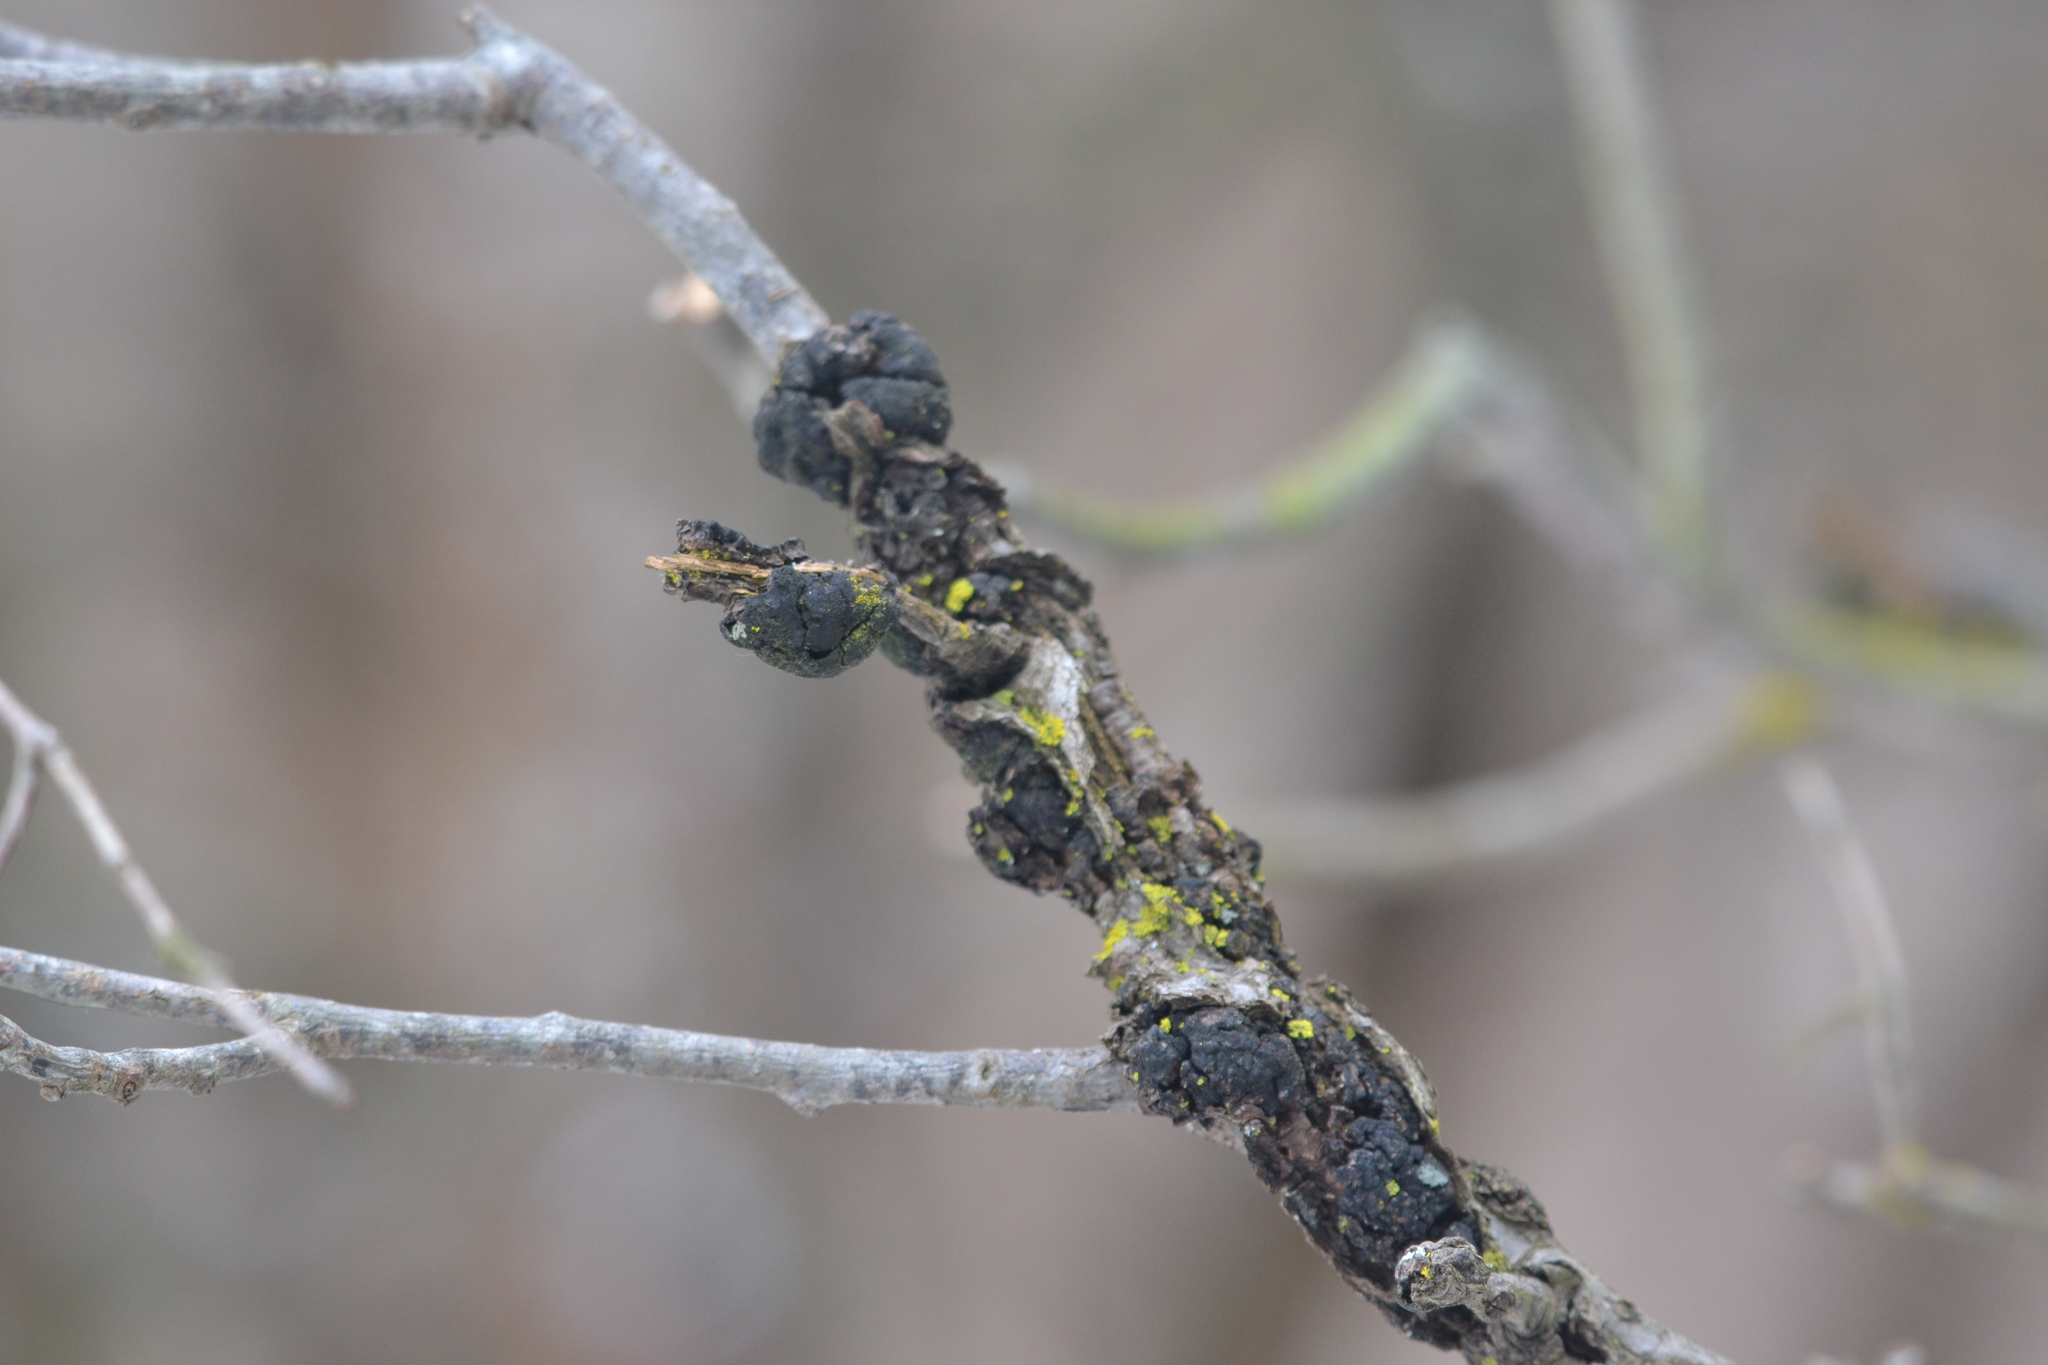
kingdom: Fungi
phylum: Ascomycota
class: Dothideomycetes
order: Venturiales
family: Venturiaceae
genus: Apiosporina
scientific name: Apiosporina morbosa
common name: Black knot
